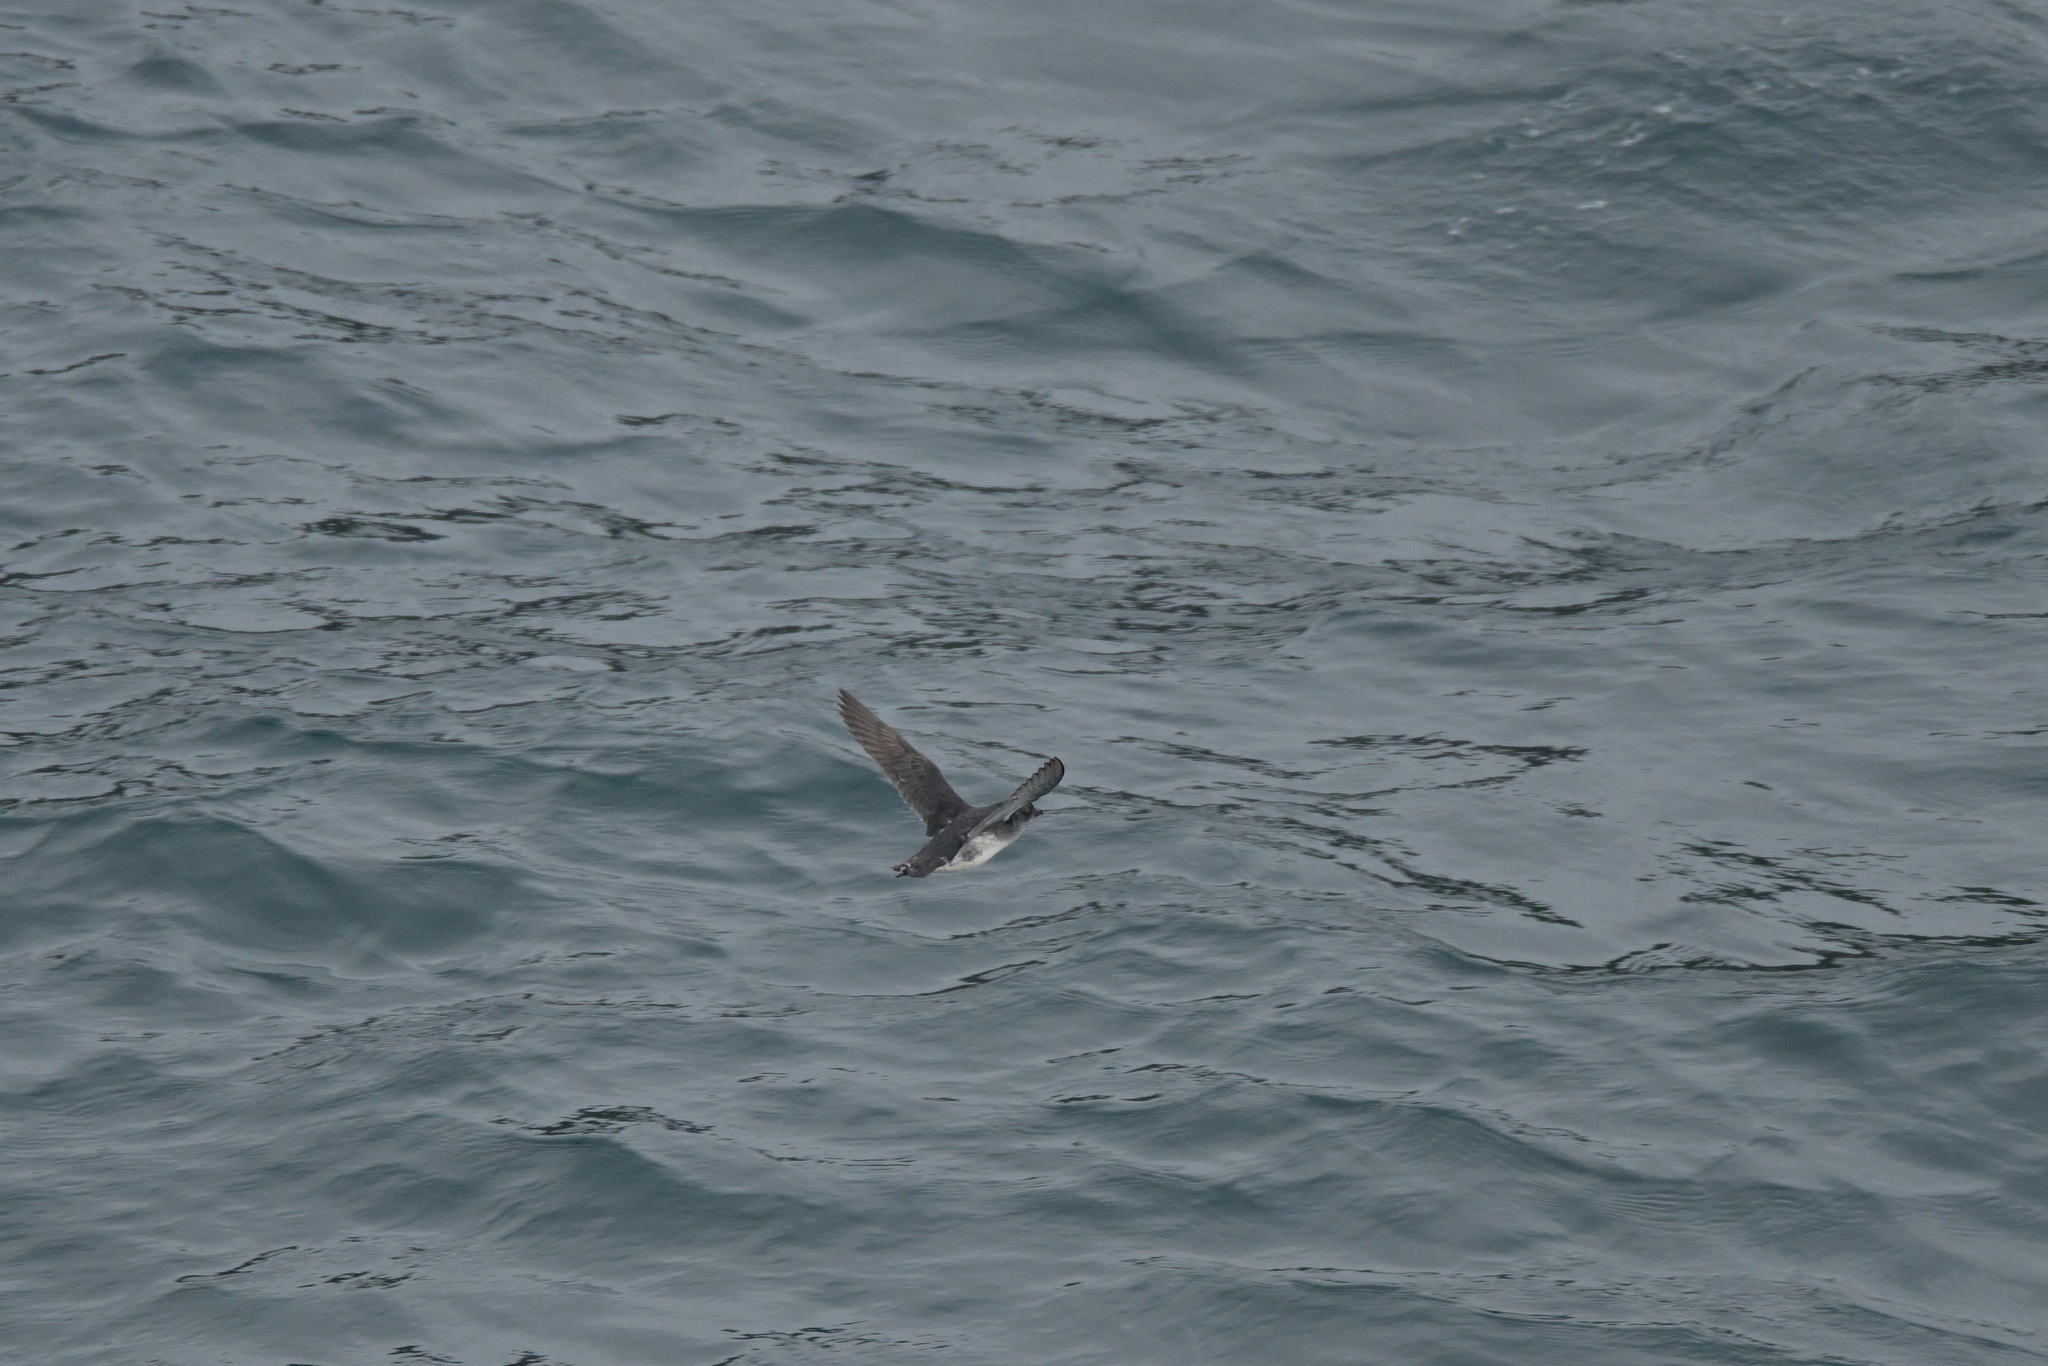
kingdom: Animalia
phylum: Chordata
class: Aves
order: Procellariiformes
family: Pelecanoididae
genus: Pelecanoides
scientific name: Pelecanoides urinatrix
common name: Common diving-petrel
